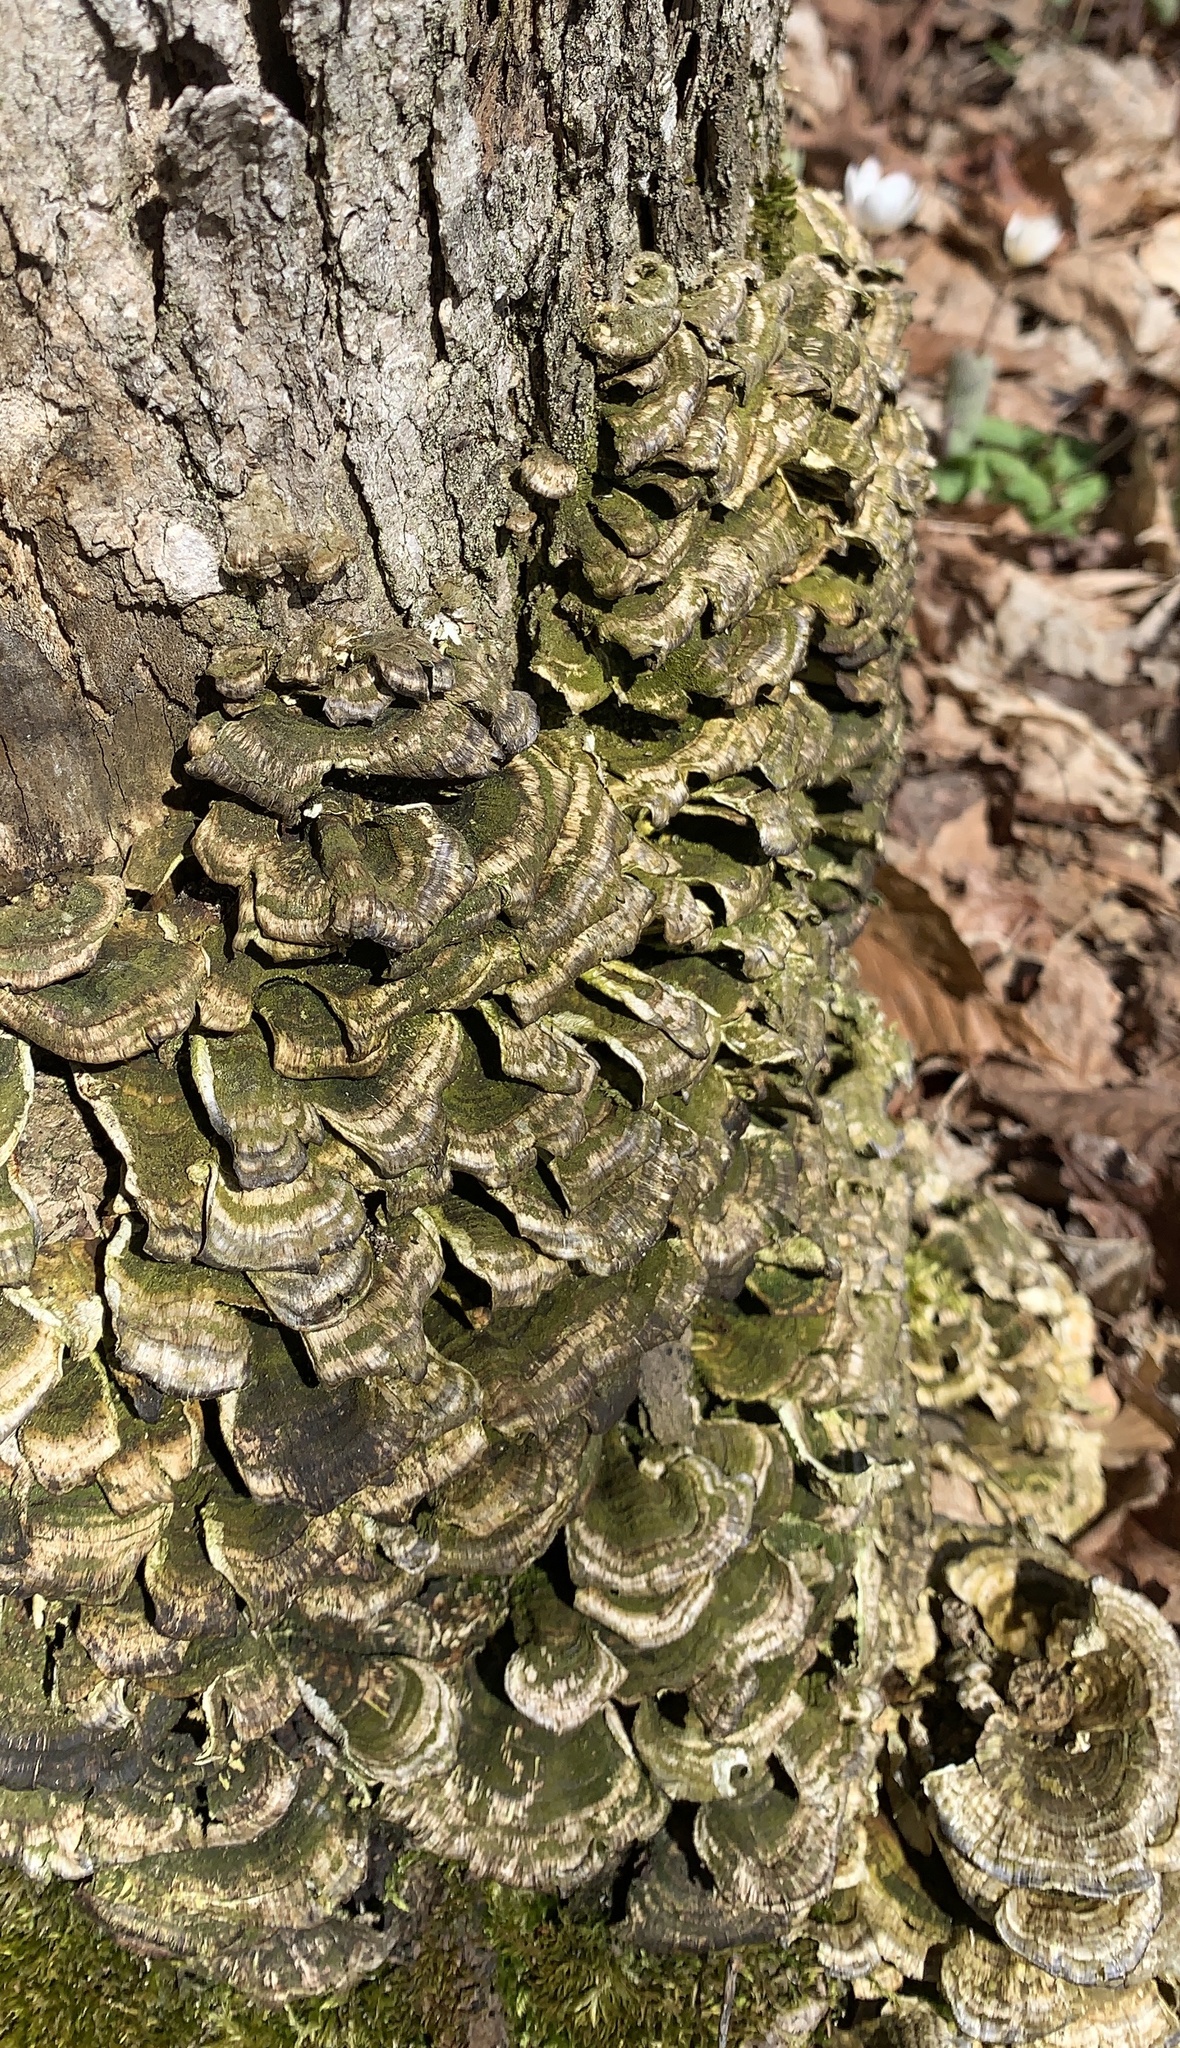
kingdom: Fungi
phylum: Basidiomycota
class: Agaricomycetes
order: Polyporales
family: Polyporaceae
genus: Trametes
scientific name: Trametes versicolor
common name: Turkeytail
